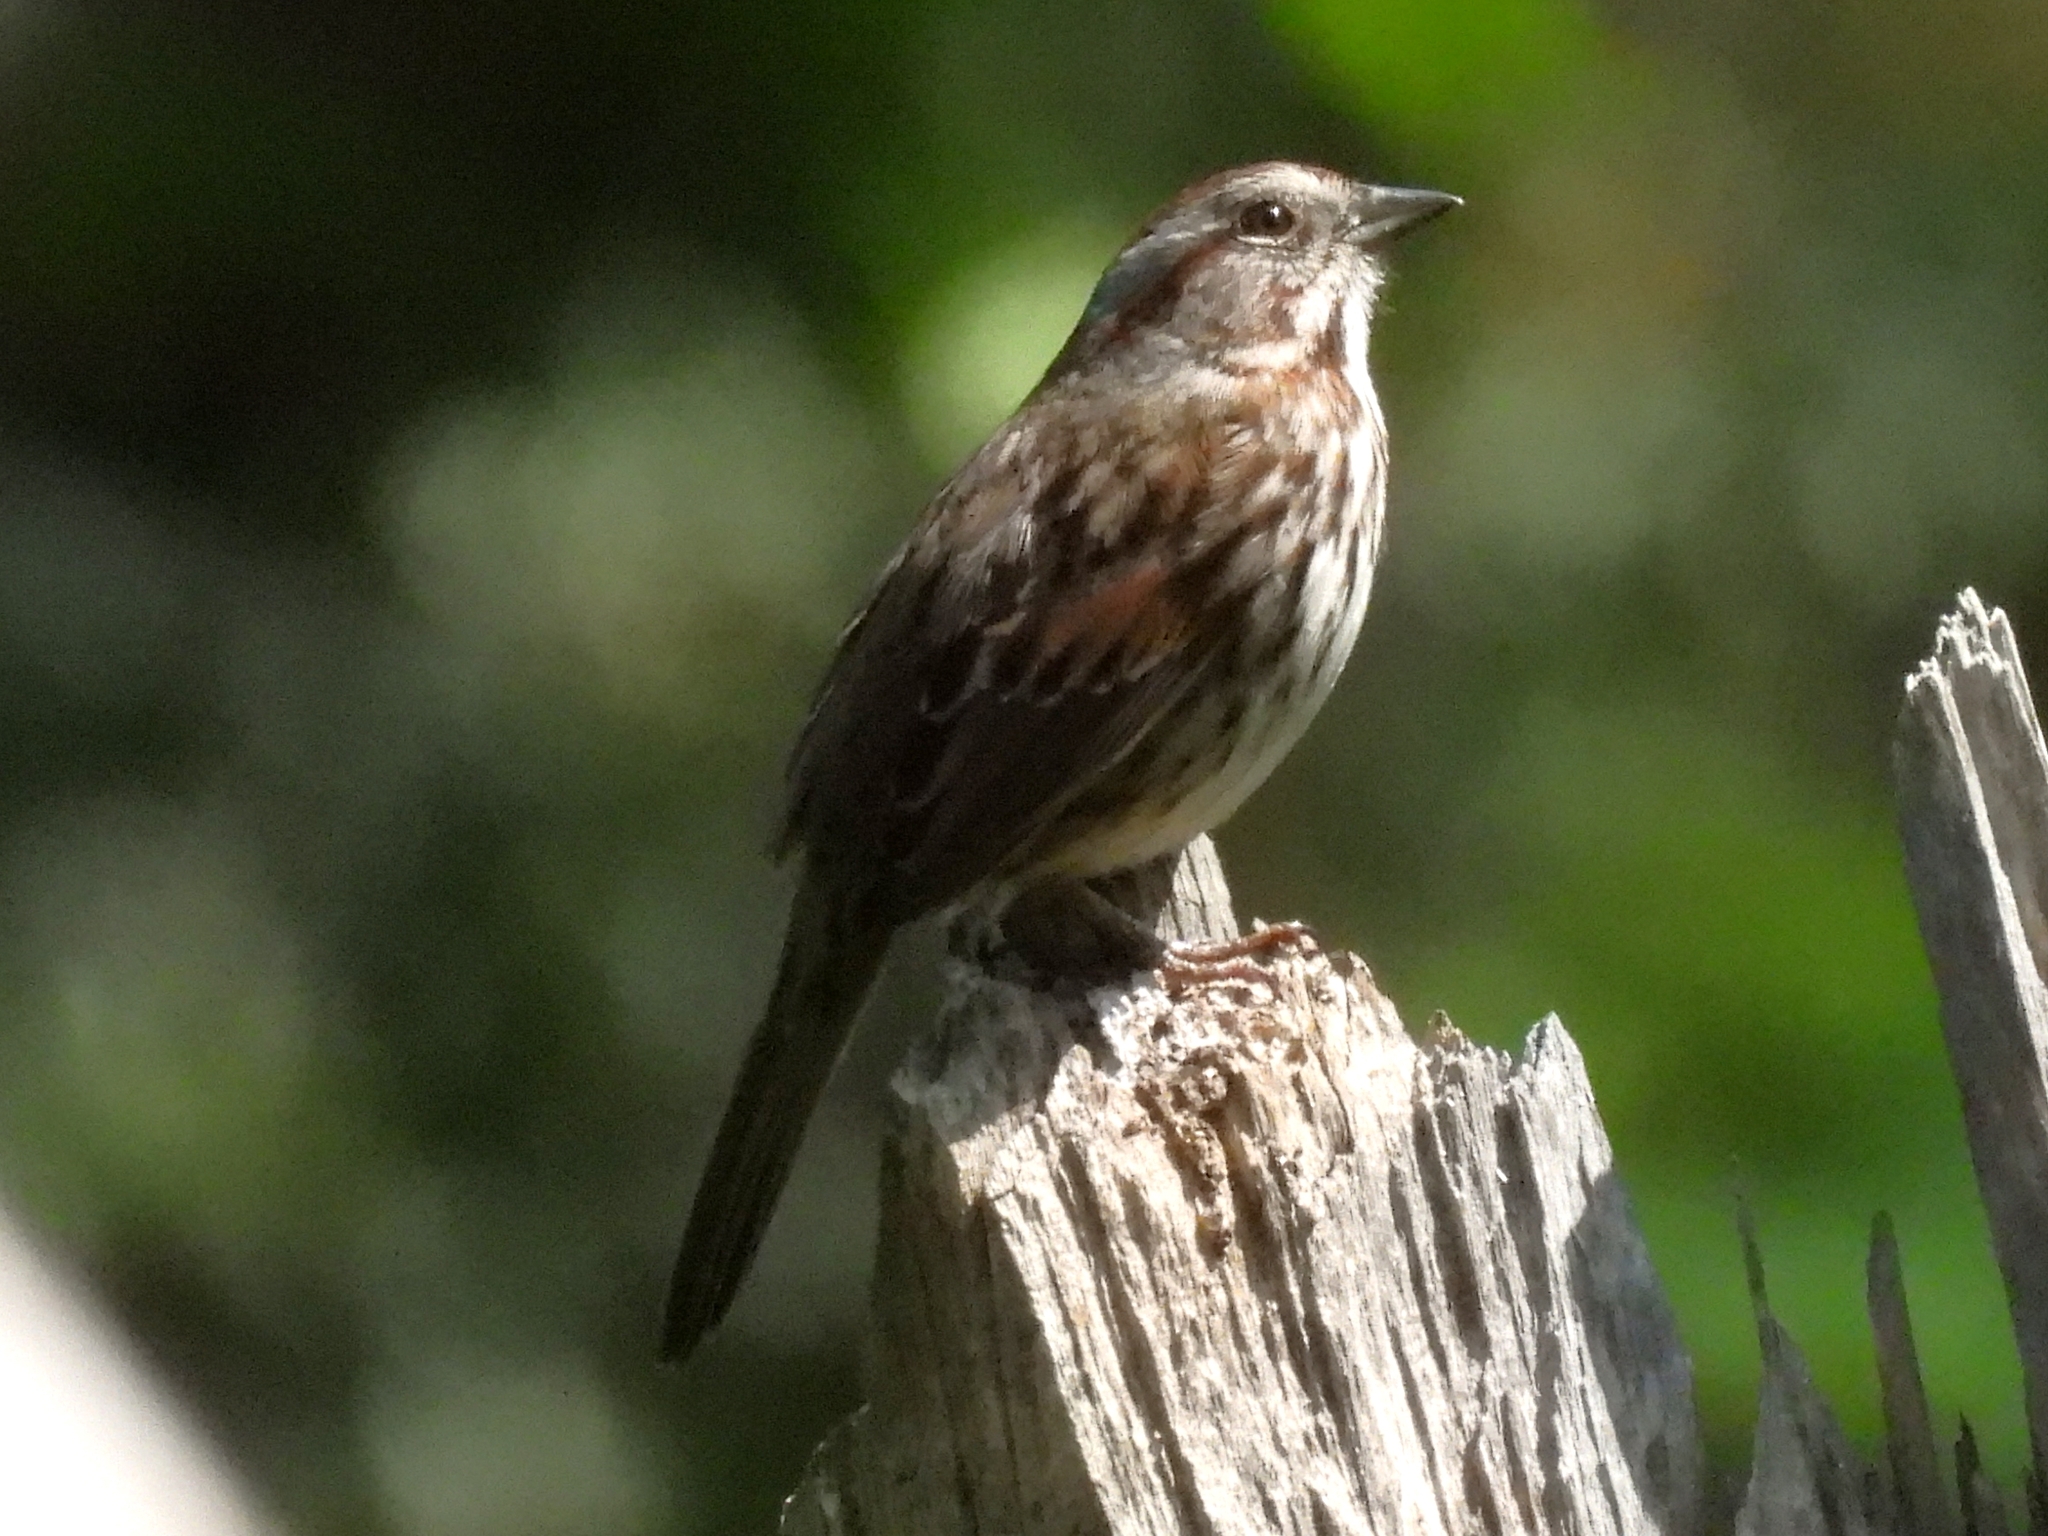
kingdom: Animalia
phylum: Chordata
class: Aves
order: Passeriformes
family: Passerellidae
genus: Melospiza
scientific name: Melospiza melodia
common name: Song sparrow
